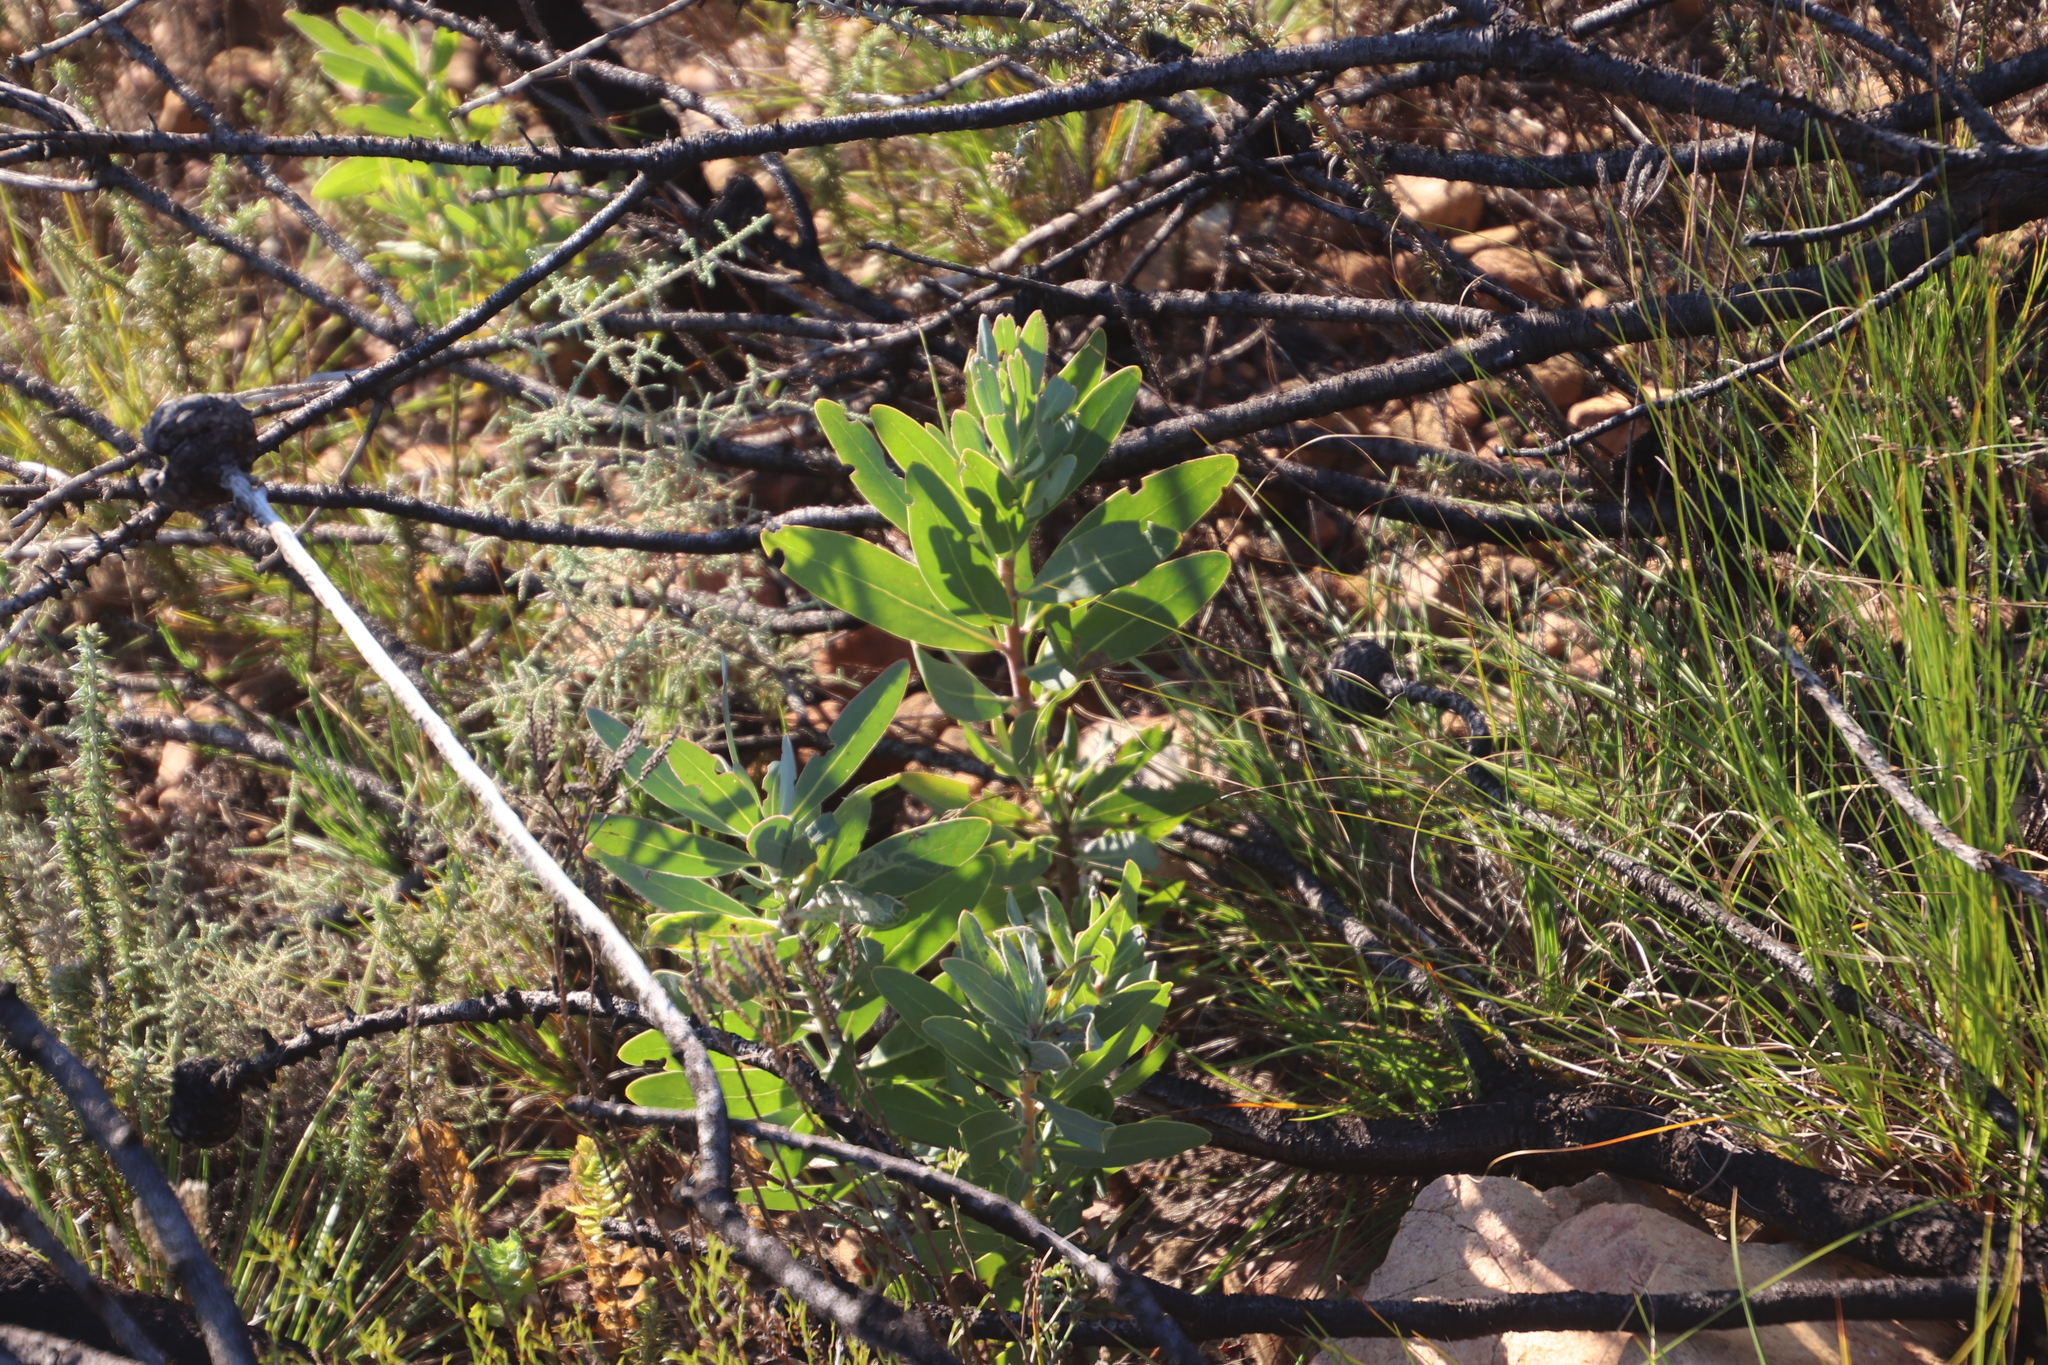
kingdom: Plantae
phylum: Tracheophyta
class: Magnoliopsida
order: Proteales
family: Proteaceae
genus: Protea
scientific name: Protea laurifolia
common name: Grey-leaf sugarbsh
